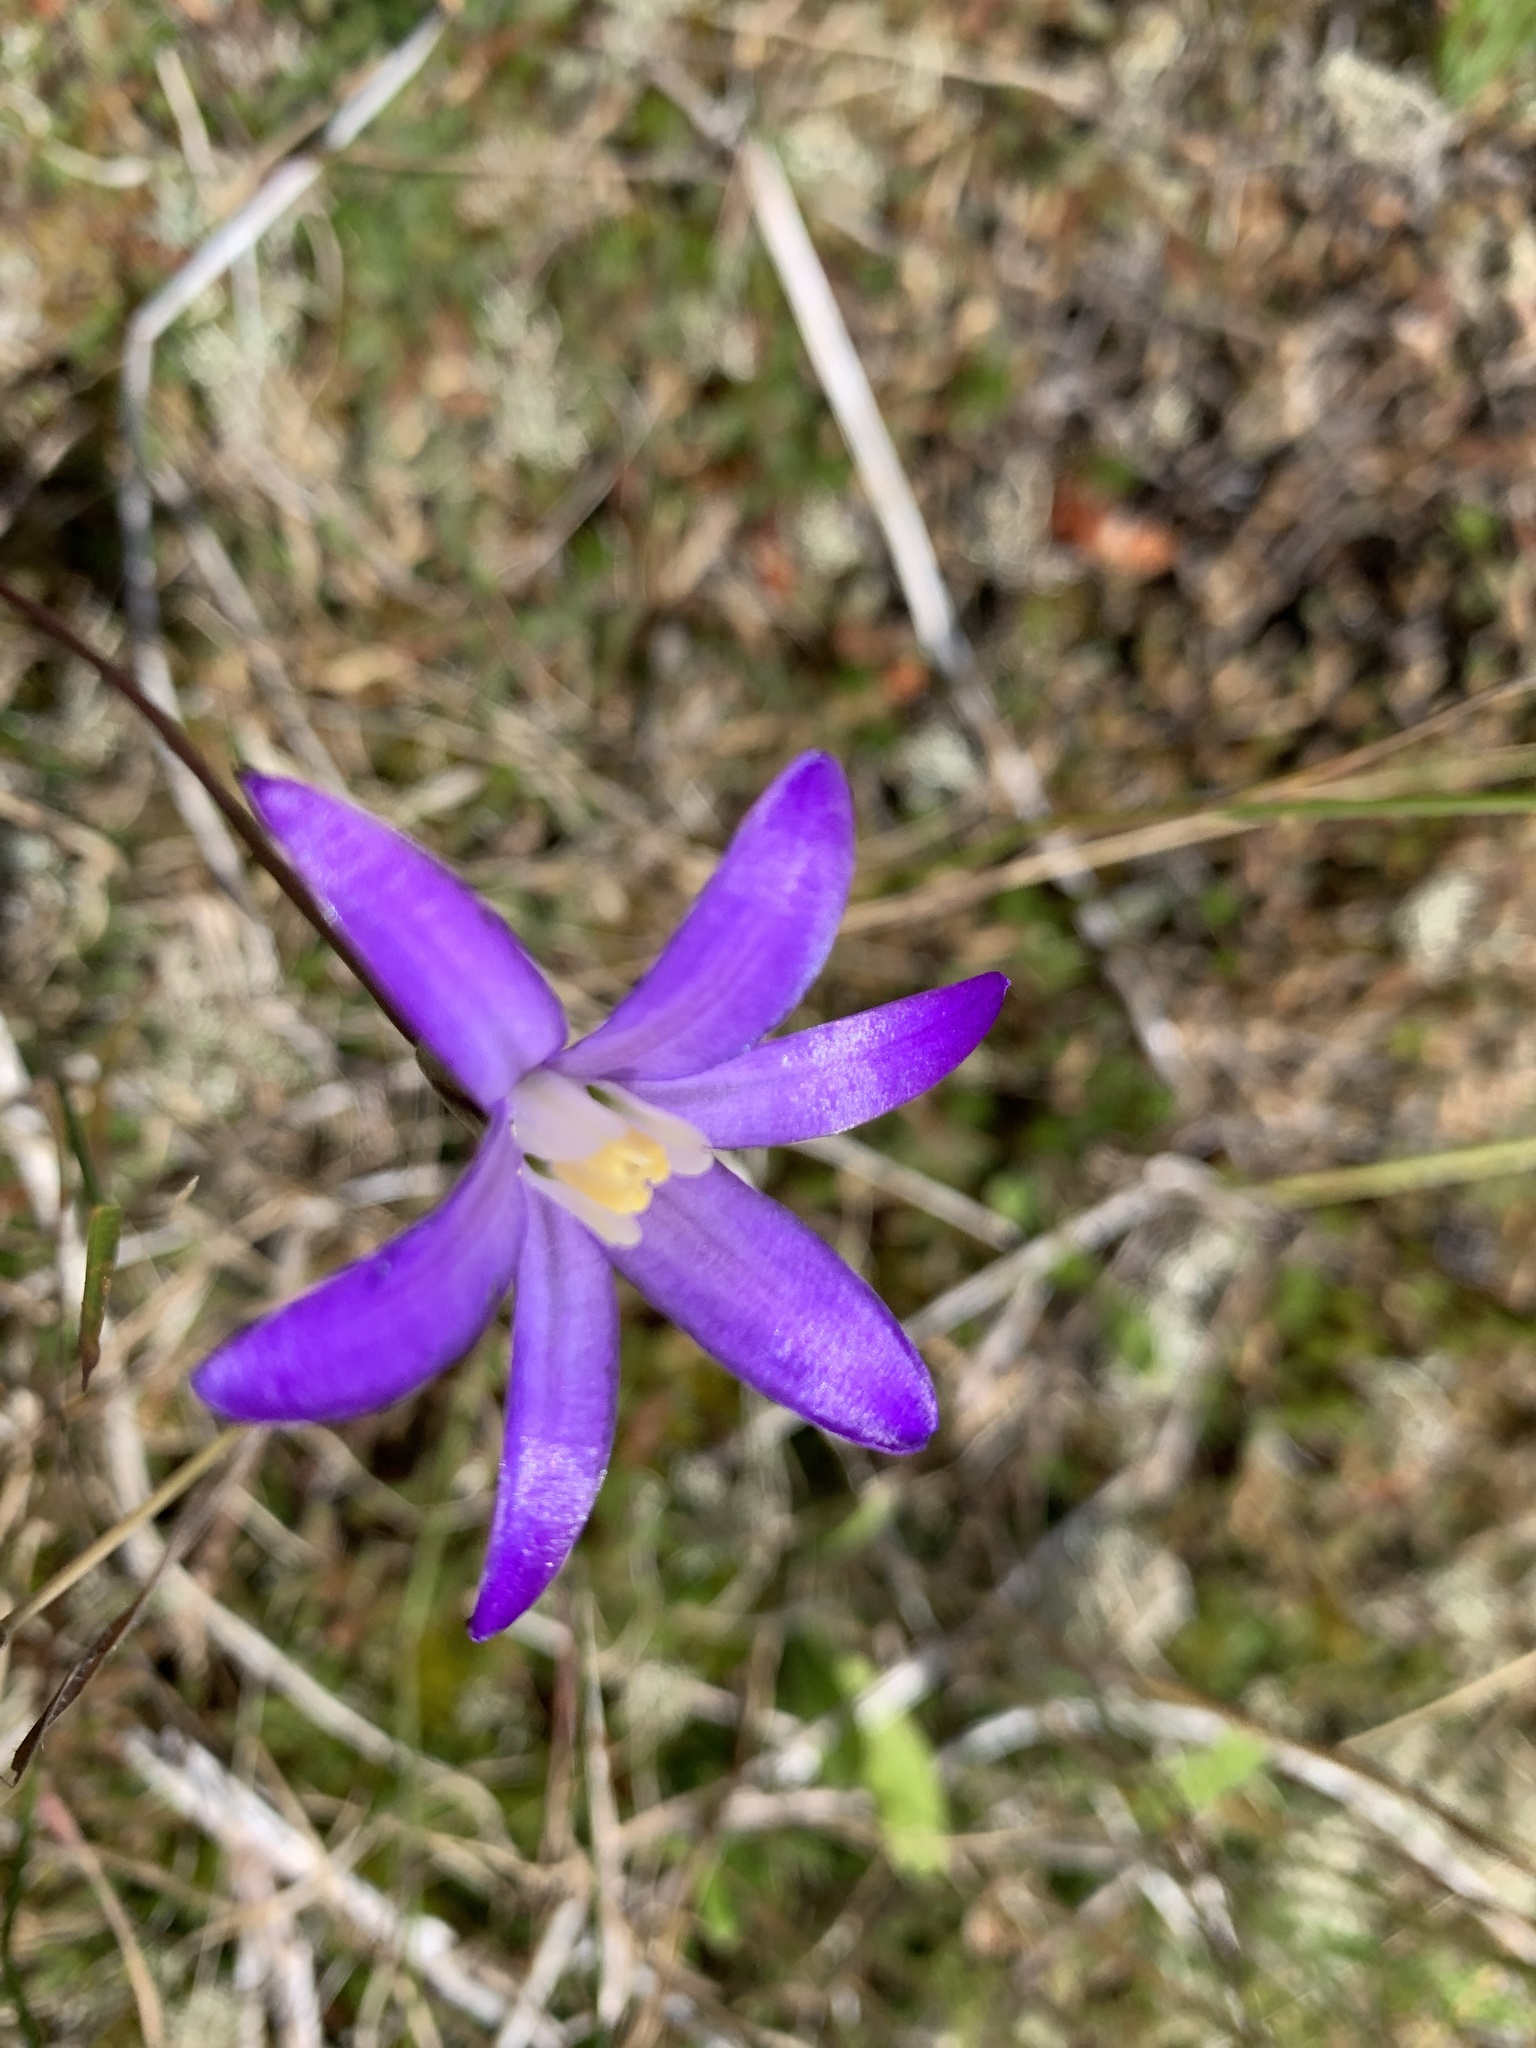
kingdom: Plantae
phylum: Tracheophyta
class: Liliopsida
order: Asparagales
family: Asparagaceae
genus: Brodiaea
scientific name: Brodiaea coronaria
